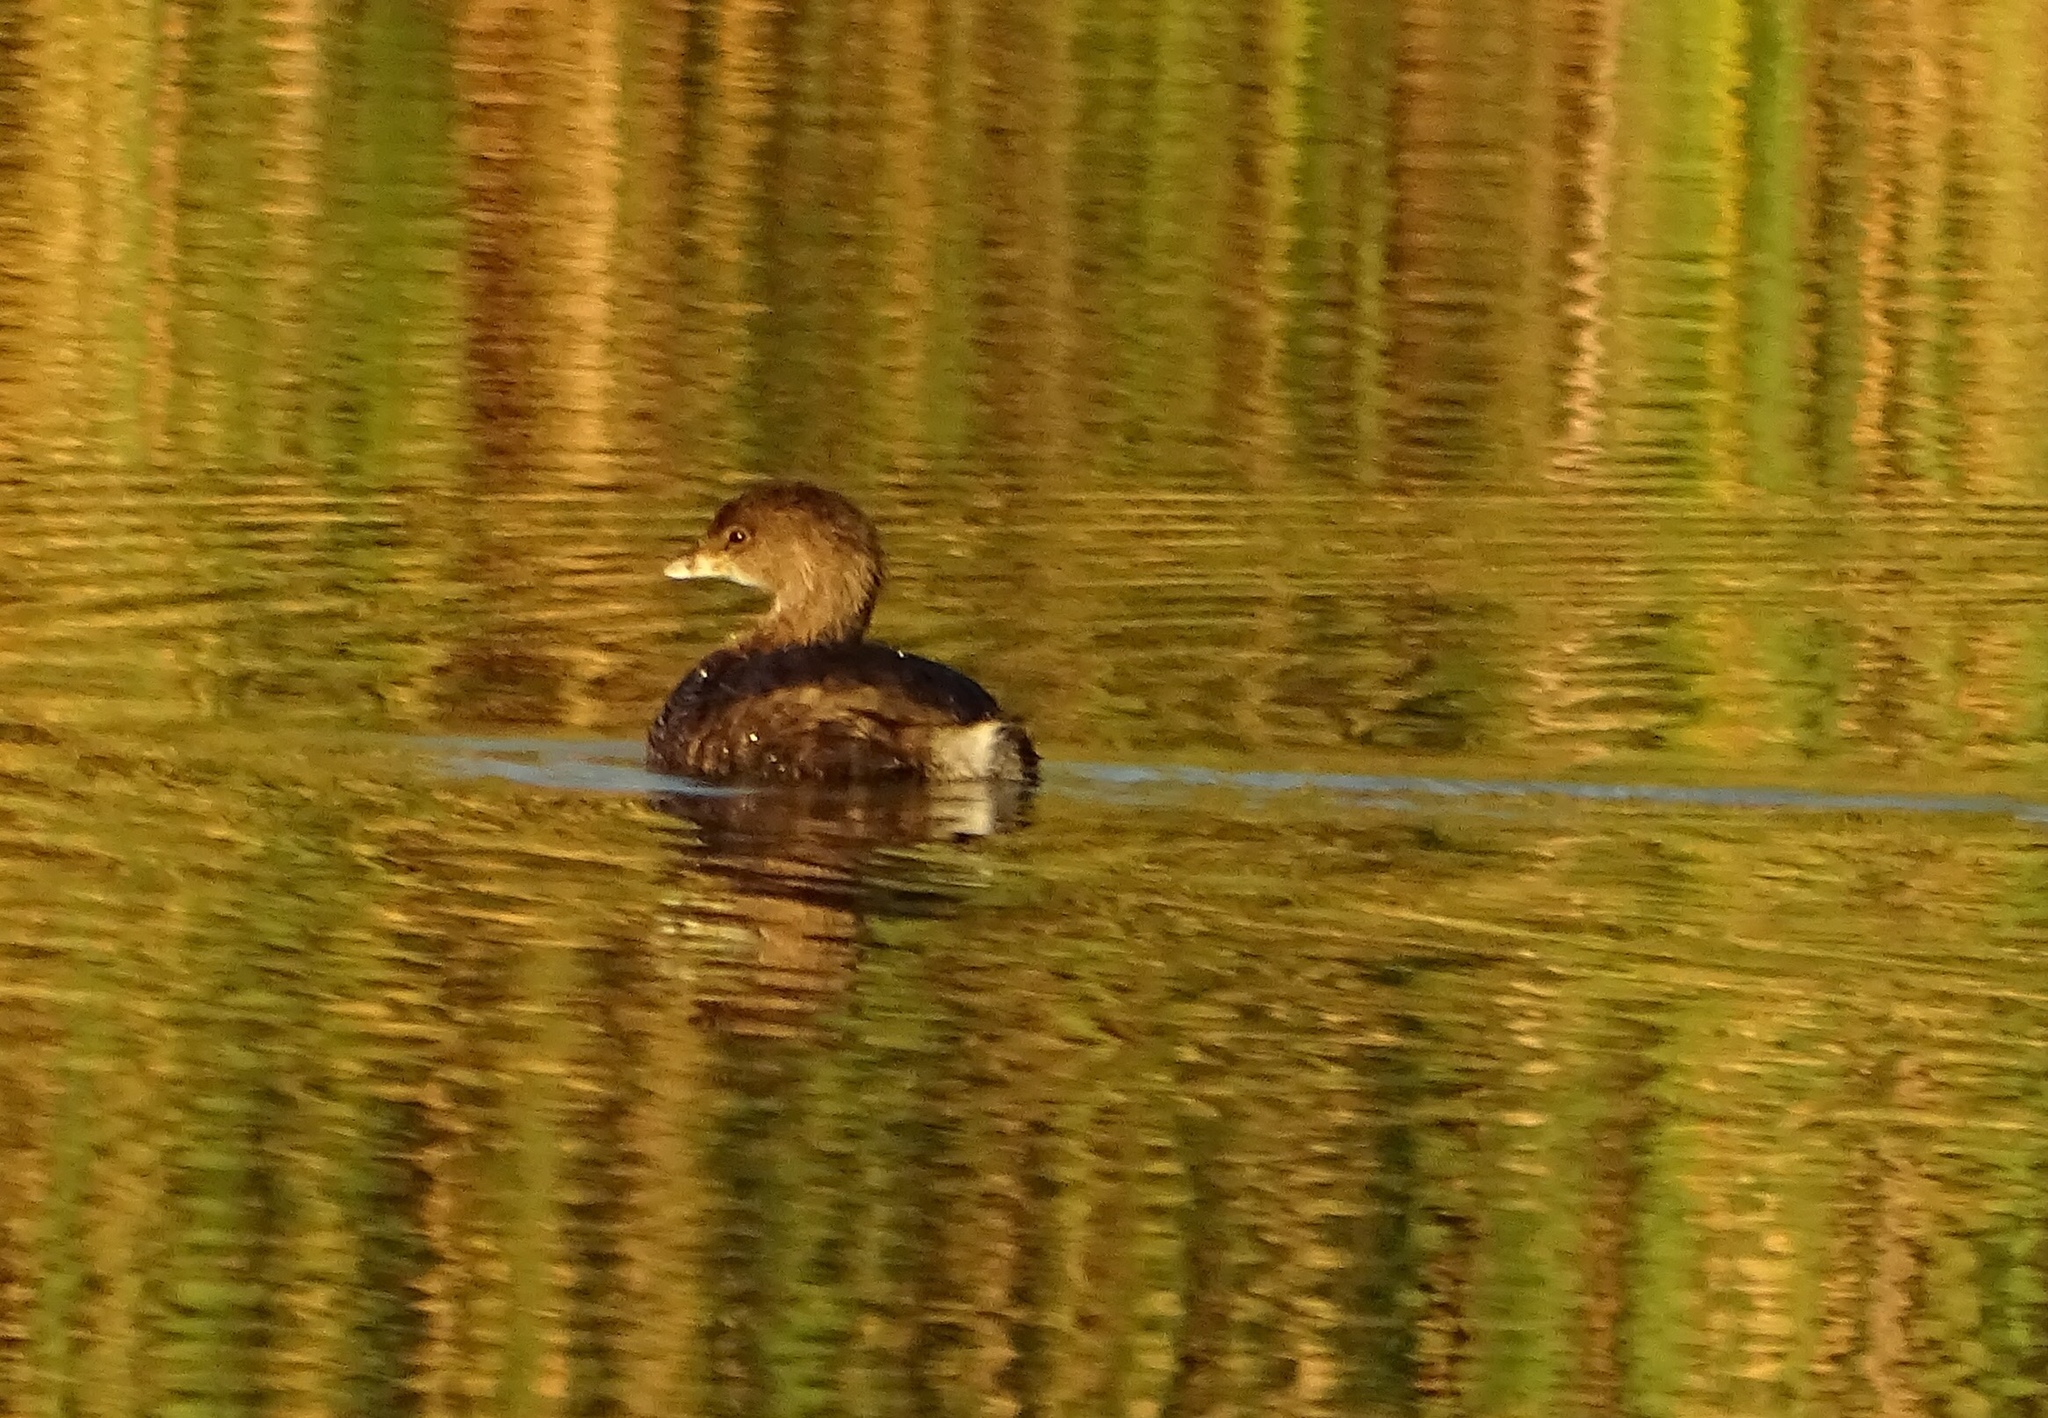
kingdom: Animalia
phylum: Chordata
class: Aves
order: Podicipediformes
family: Podicipedidae
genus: Podilymbus
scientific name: Podilymbus podiceps
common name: Pied-billed grebe
